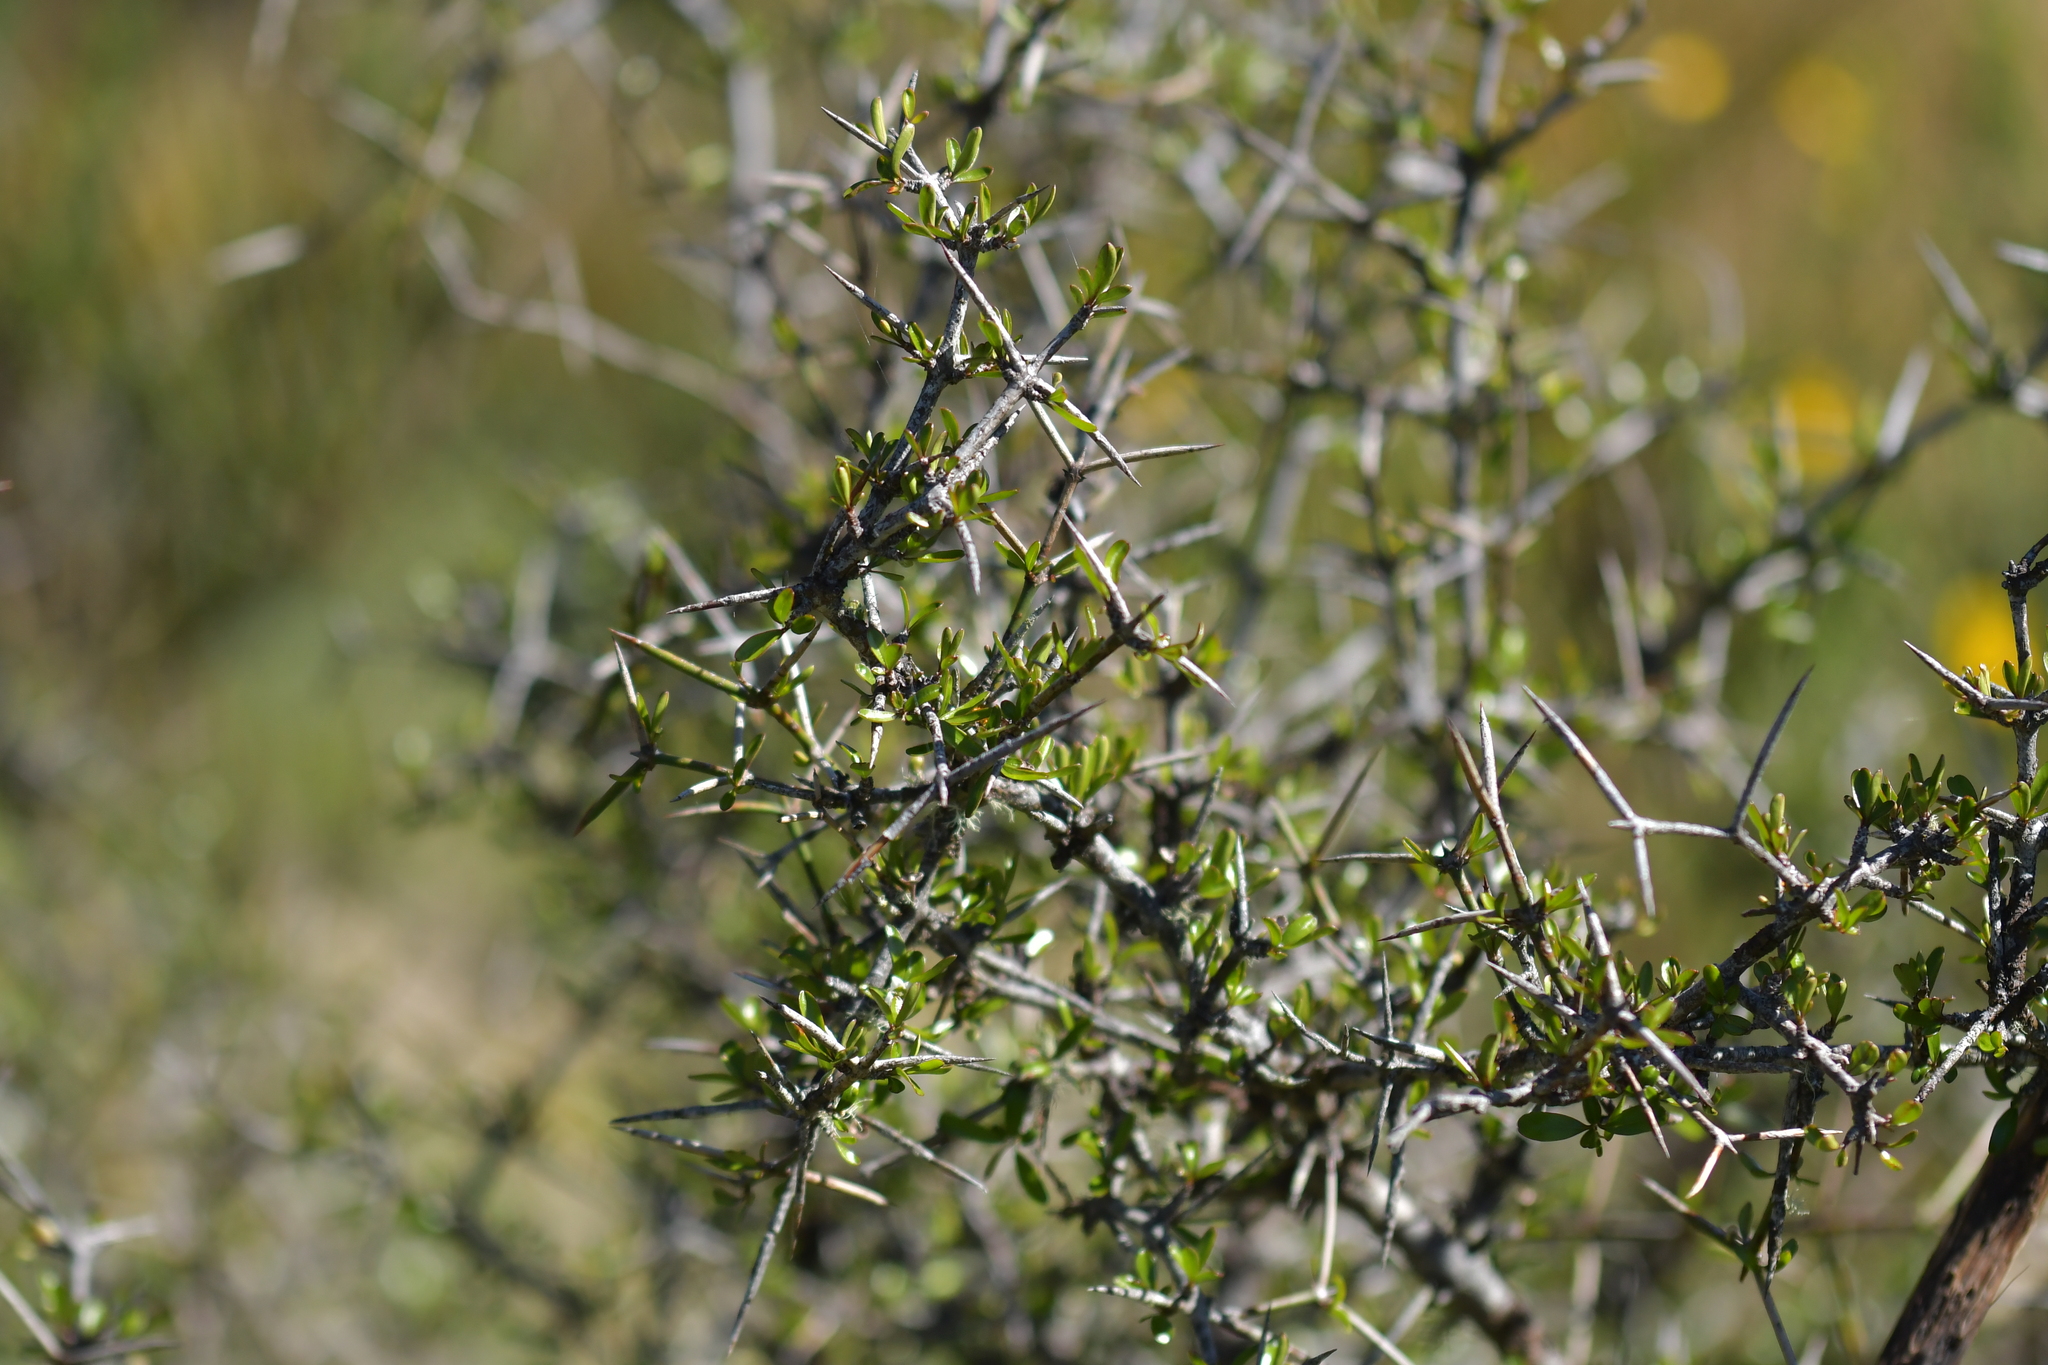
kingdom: Plantae
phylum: Tracheophyta
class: Magnoliopsida
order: Rosales
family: Rhamnaceae
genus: Discaria
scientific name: Discaria toumatou
